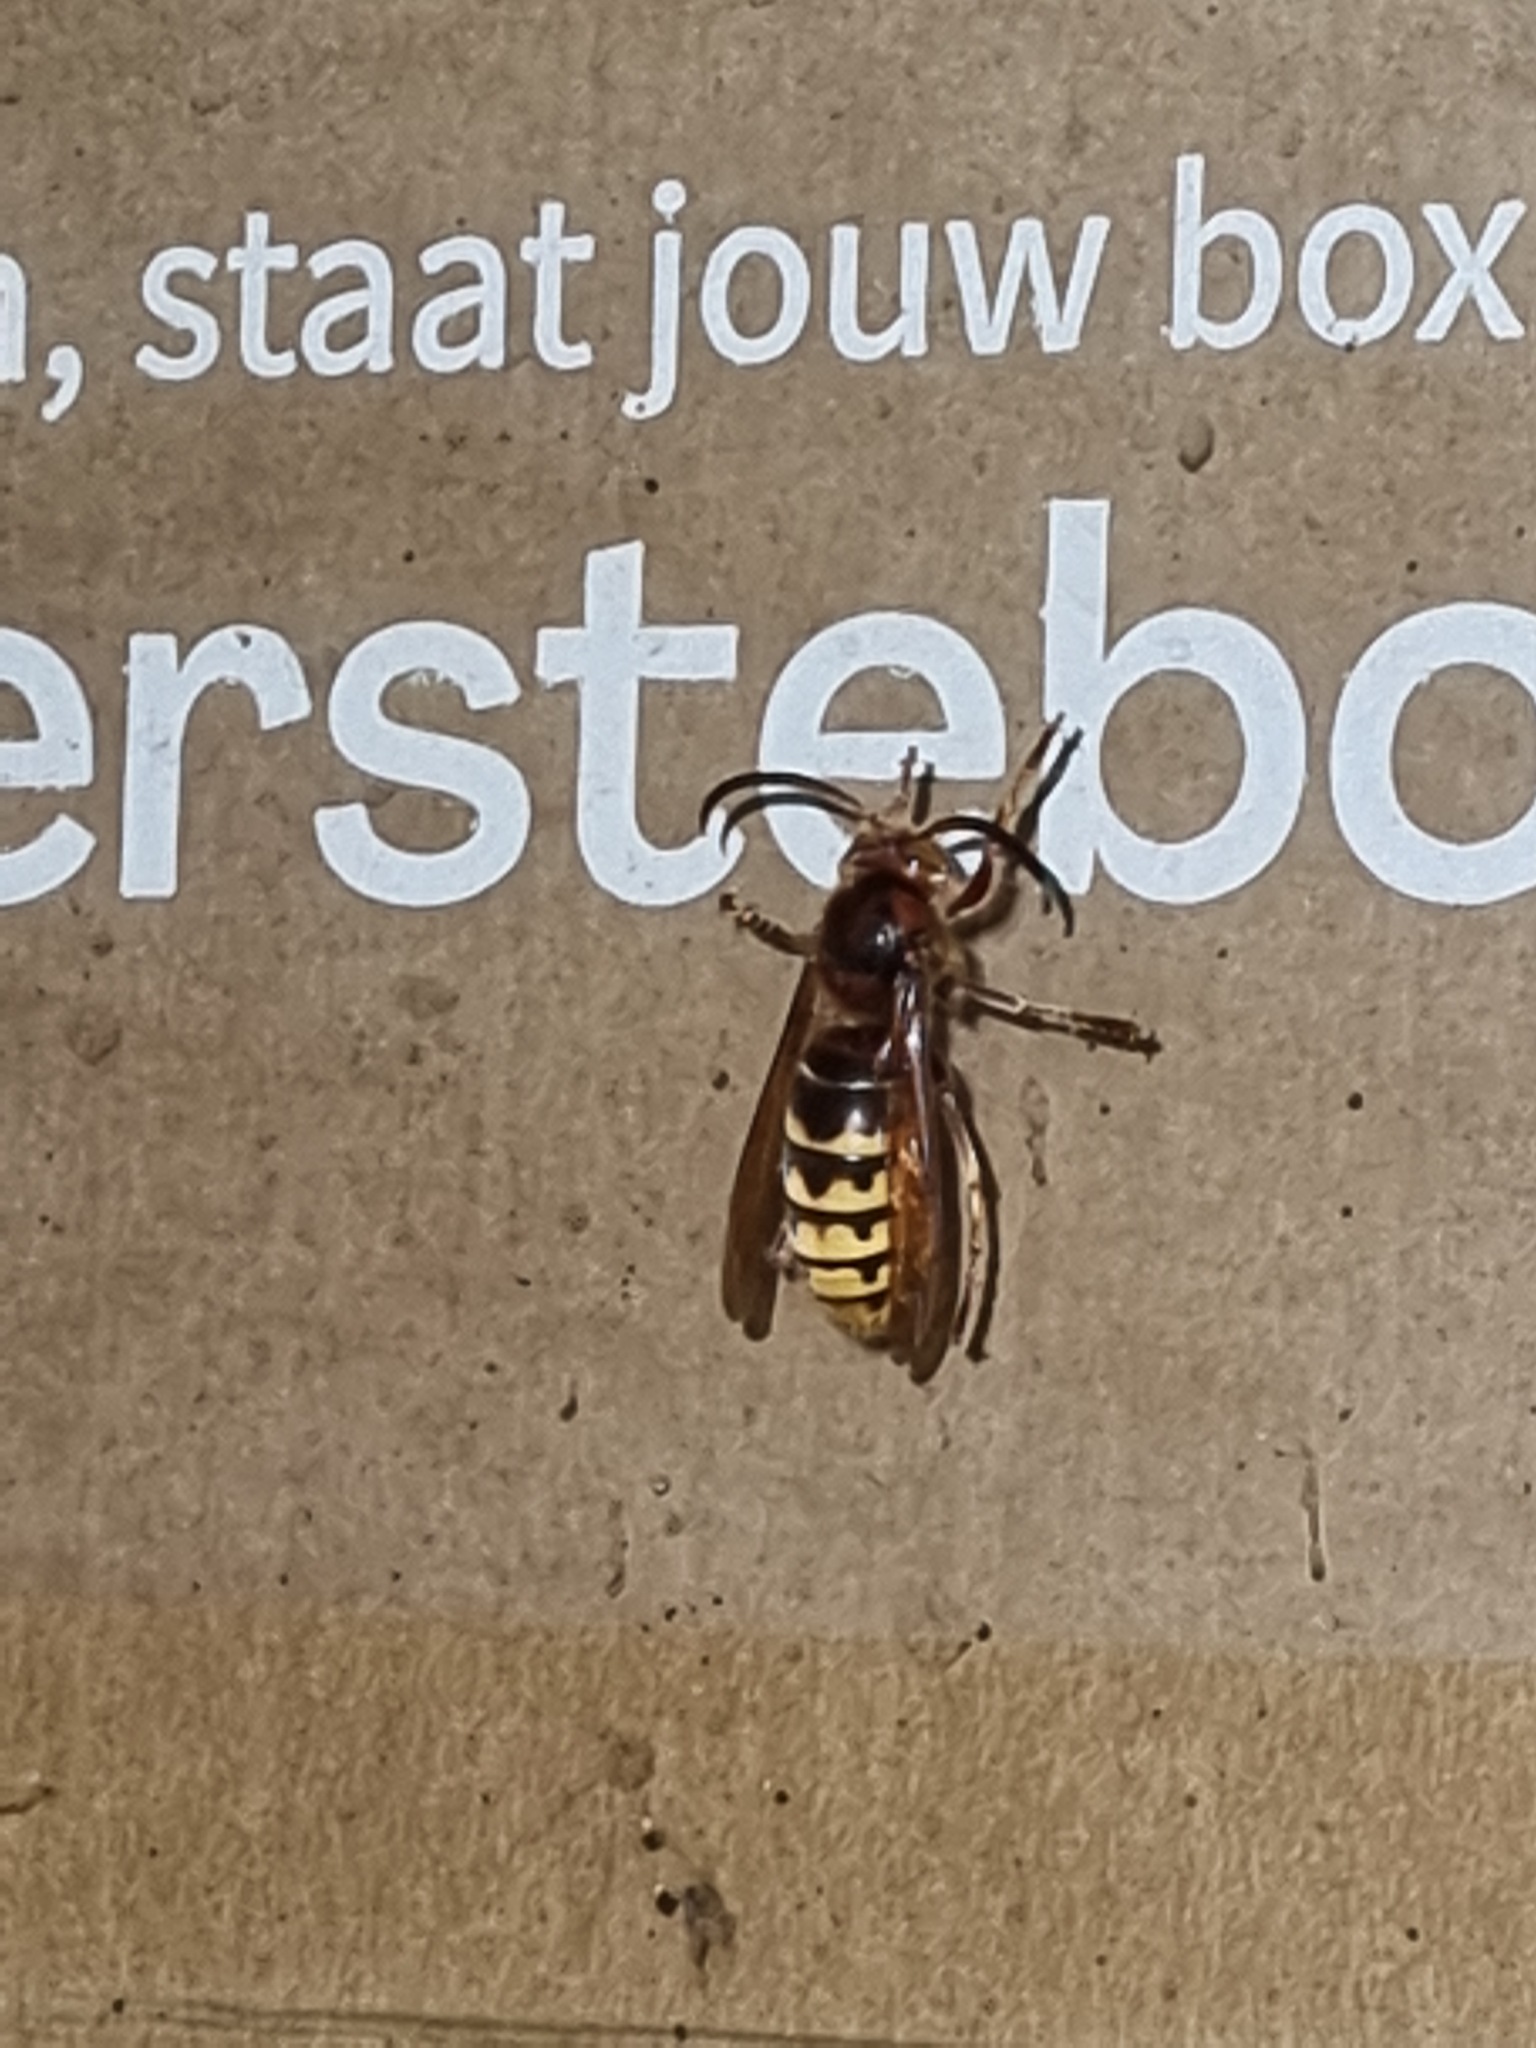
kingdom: Animalia
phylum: Arthropoda
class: Insecta
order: Hymenoptera
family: Vespidae
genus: Vespa
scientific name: Vespa crabro
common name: Hornet
